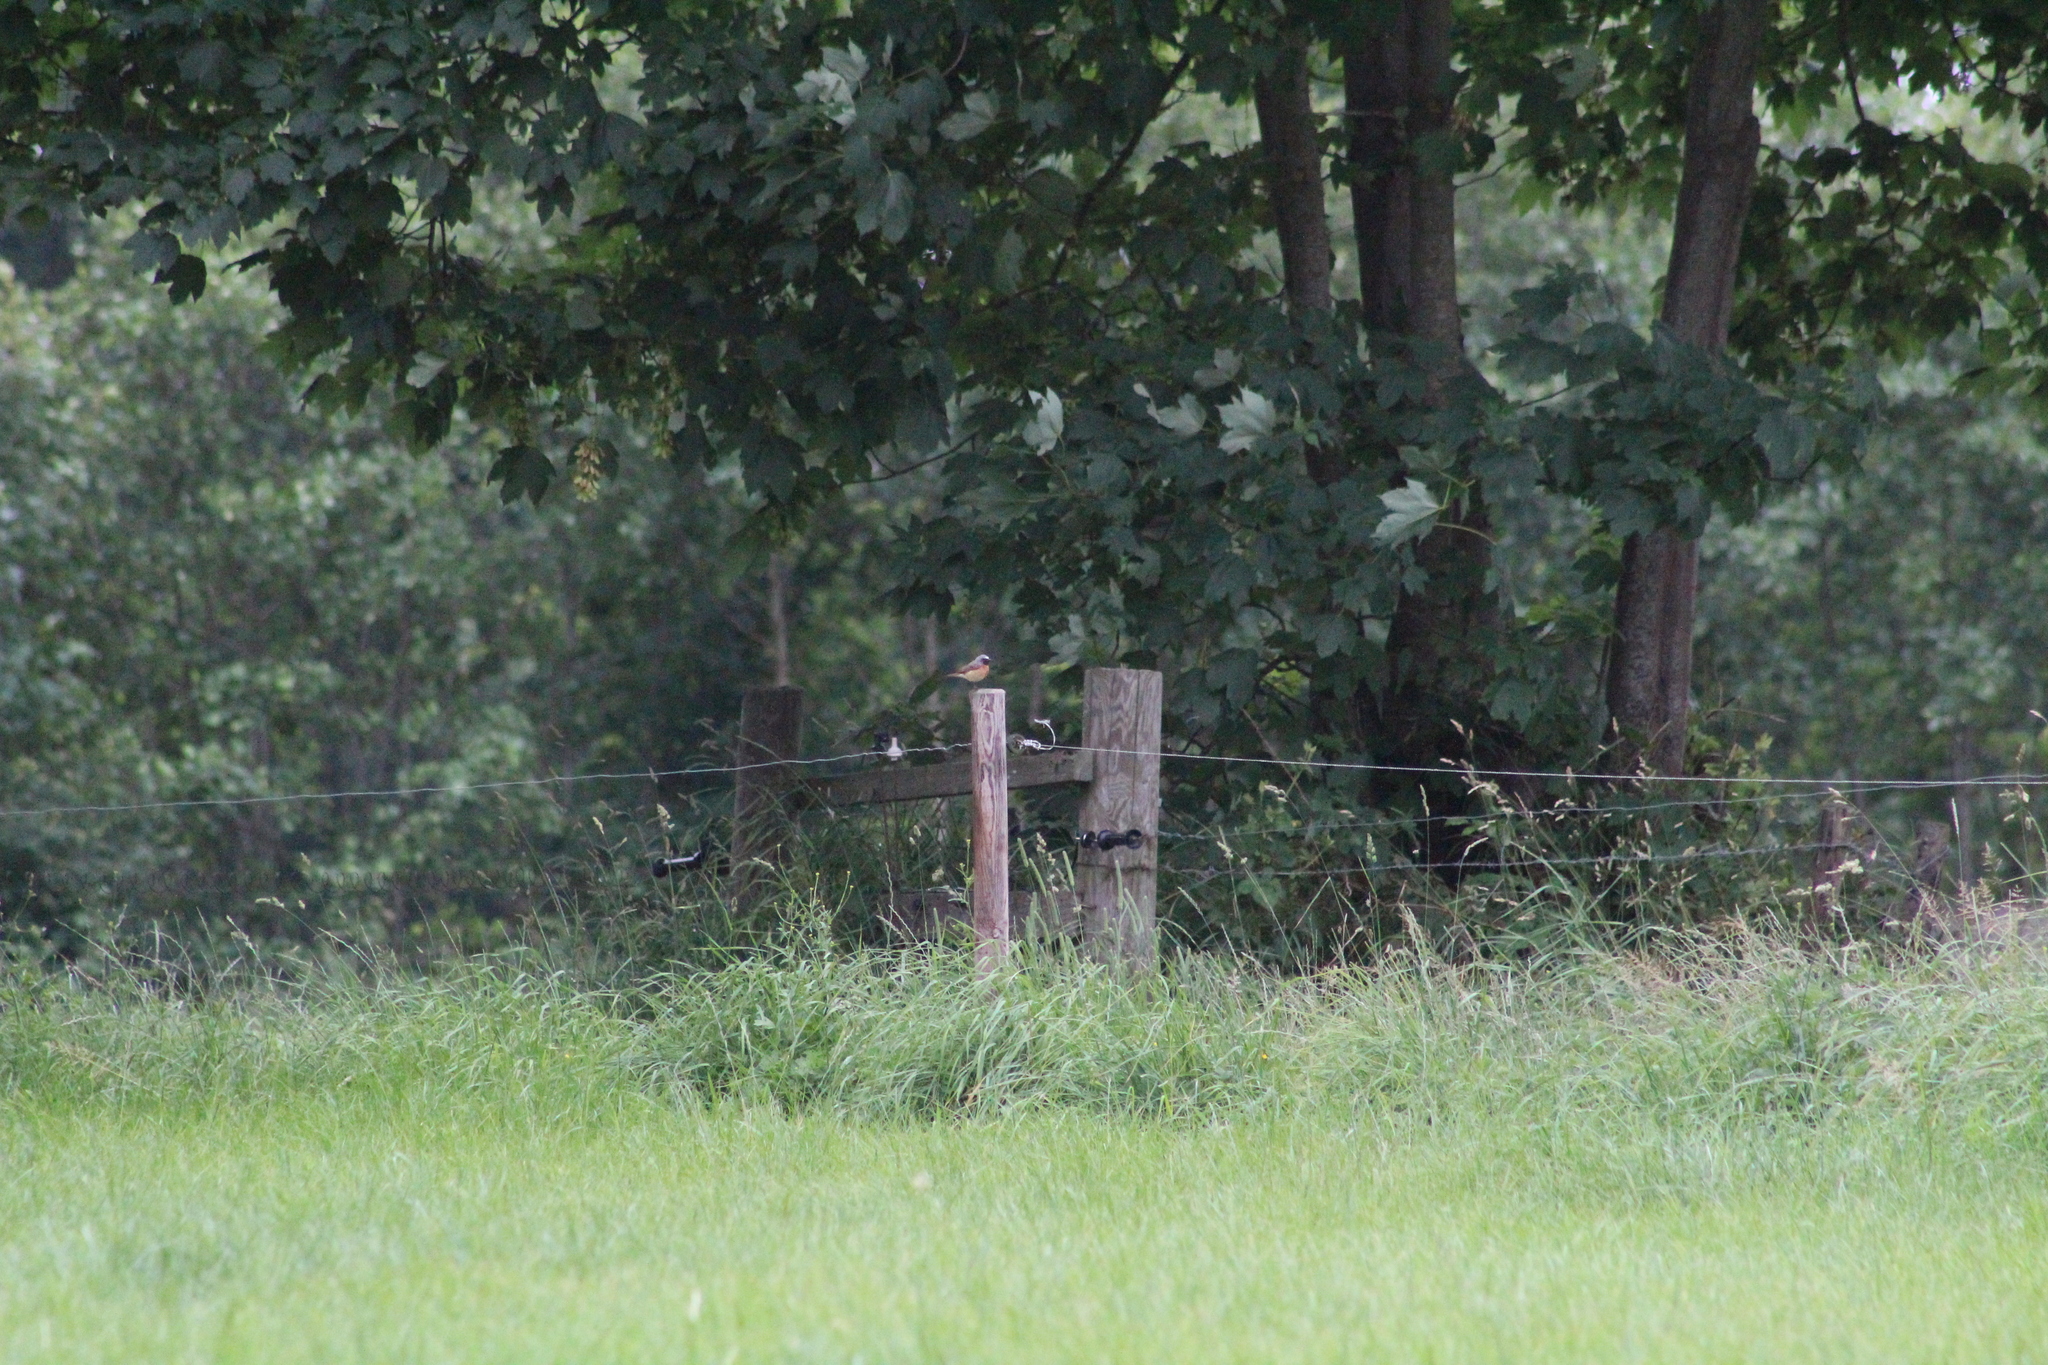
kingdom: Animalia
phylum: Chordata
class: Aves
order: Passeriformes
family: Muscicapidae
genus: Phoenicurus
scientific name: Phoenicurus phoenicurus
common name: Common redstart
